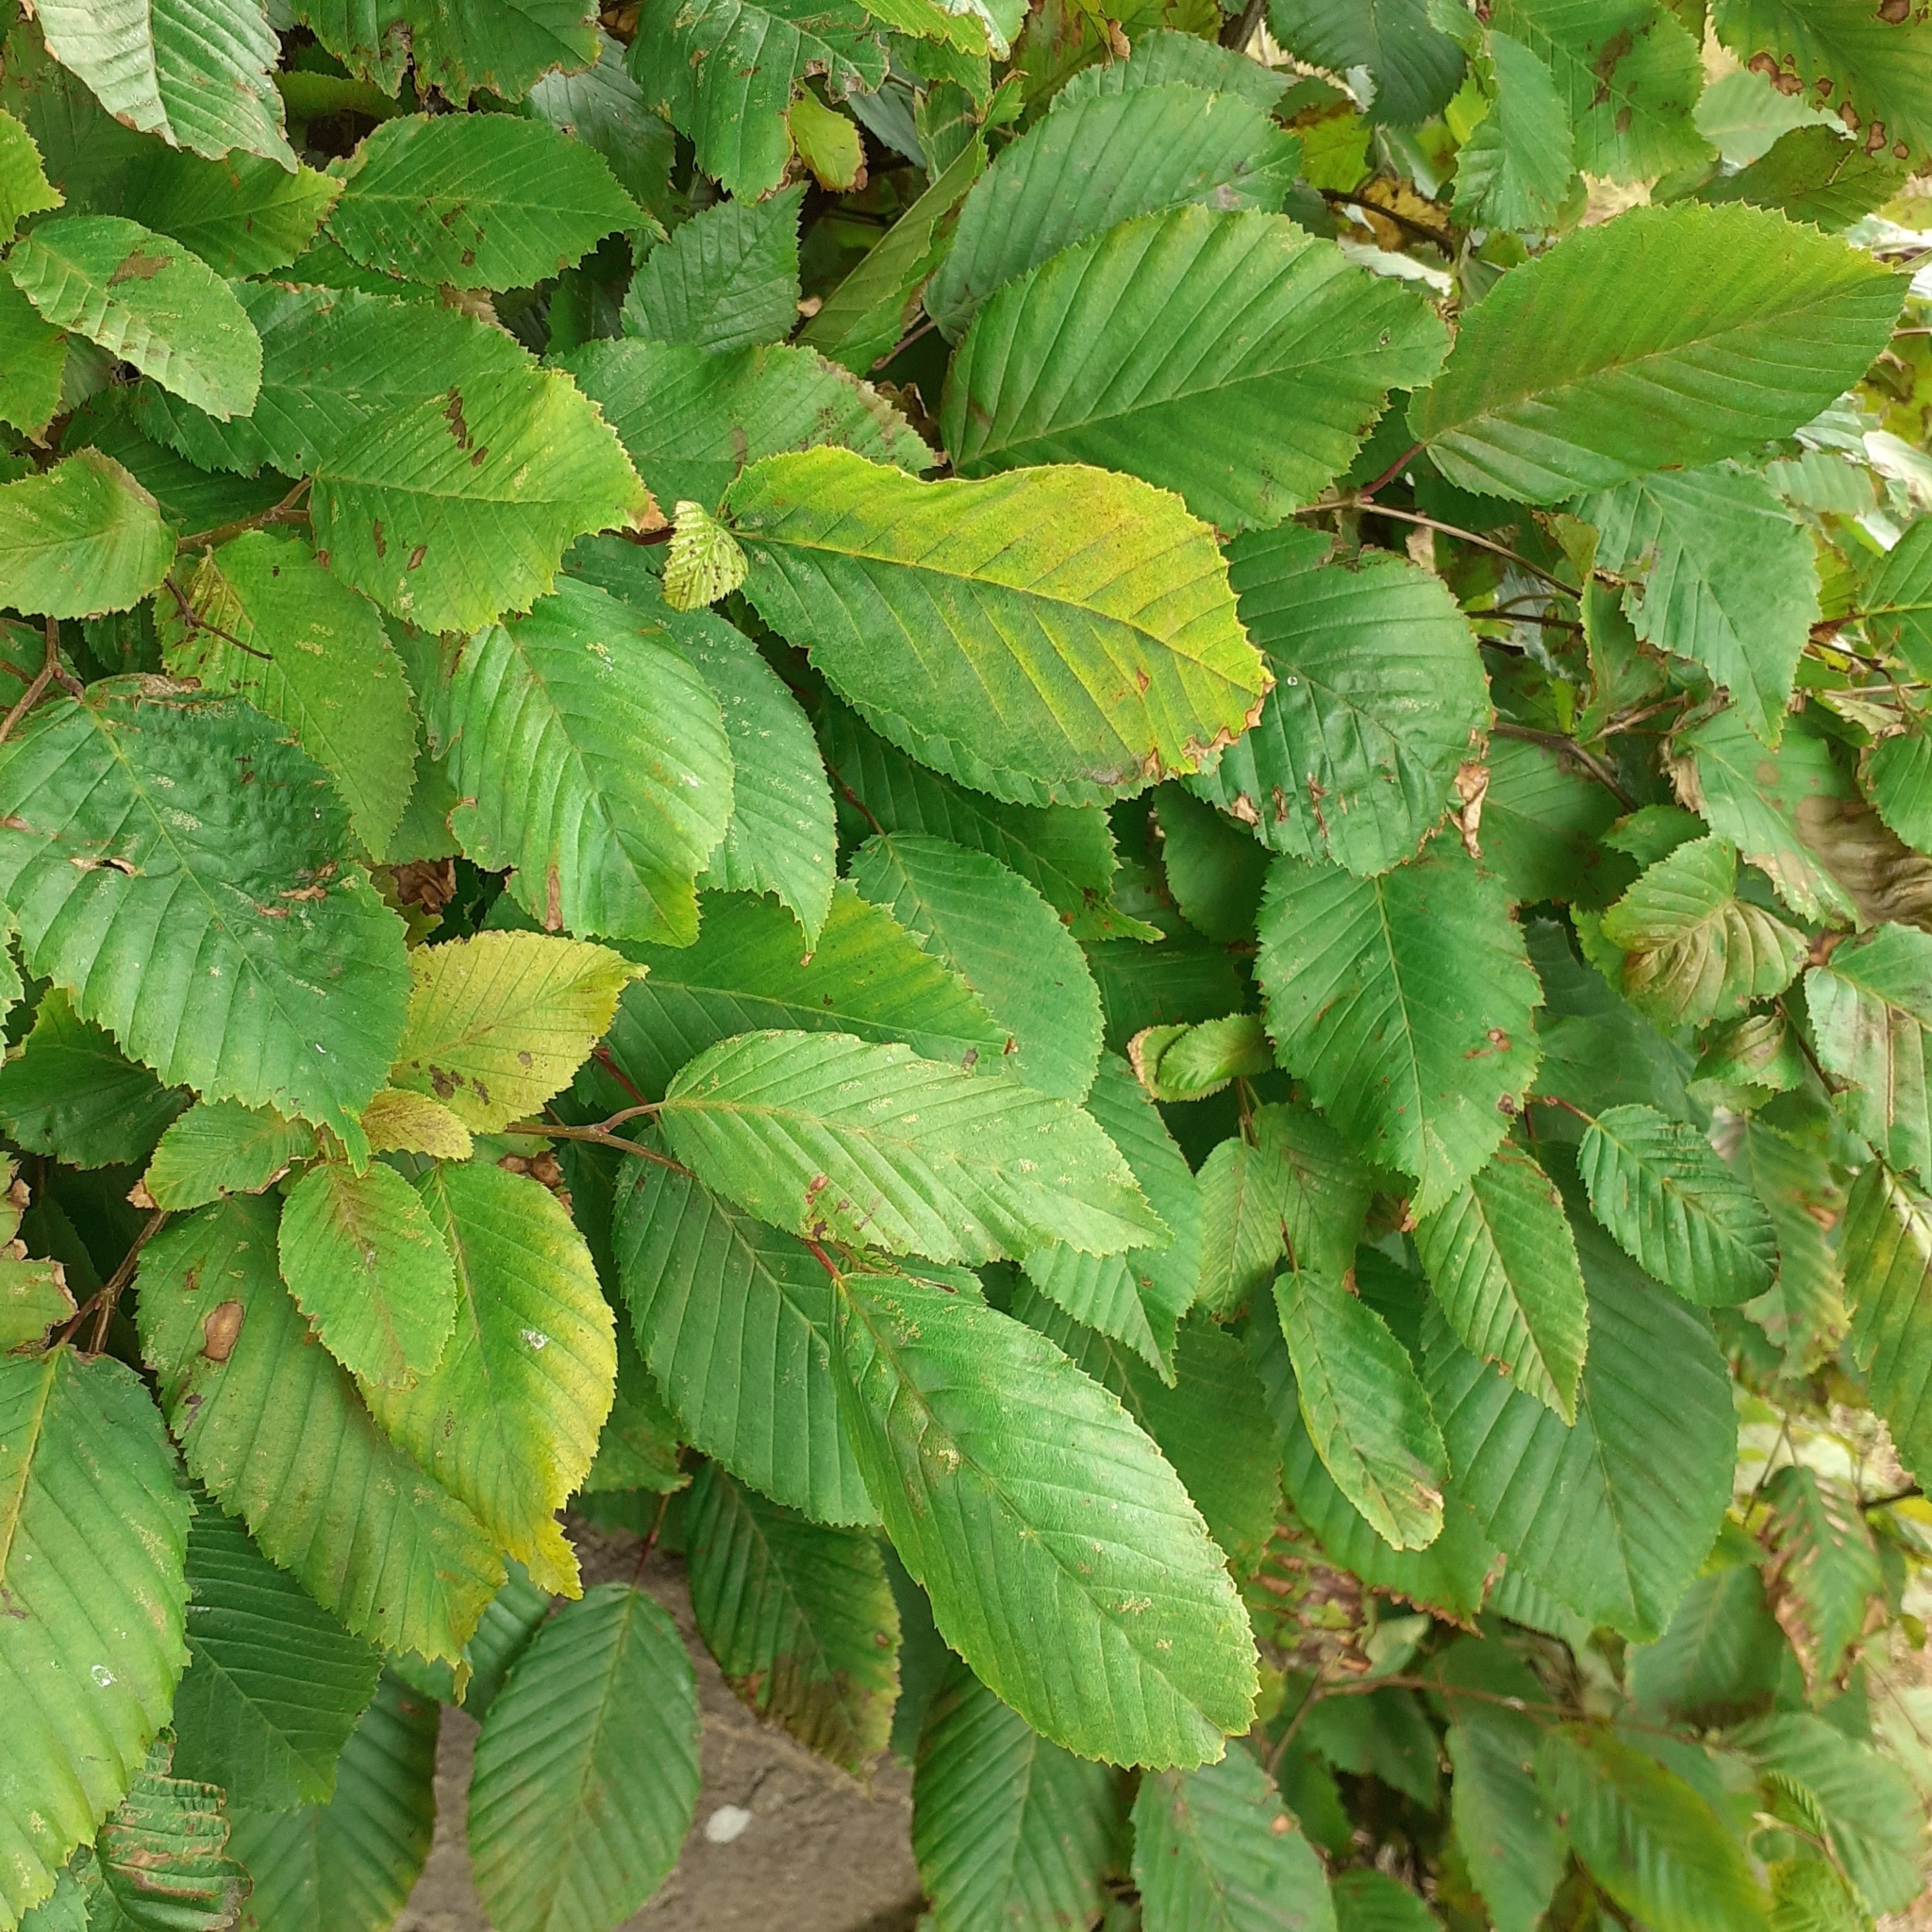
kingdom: Plantae
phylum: Tracheophyta
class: Magnoliopsida
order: Fagales
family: Betulaceae
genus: Carpinus
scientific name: Carpinus betulus
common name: Hornbeam
